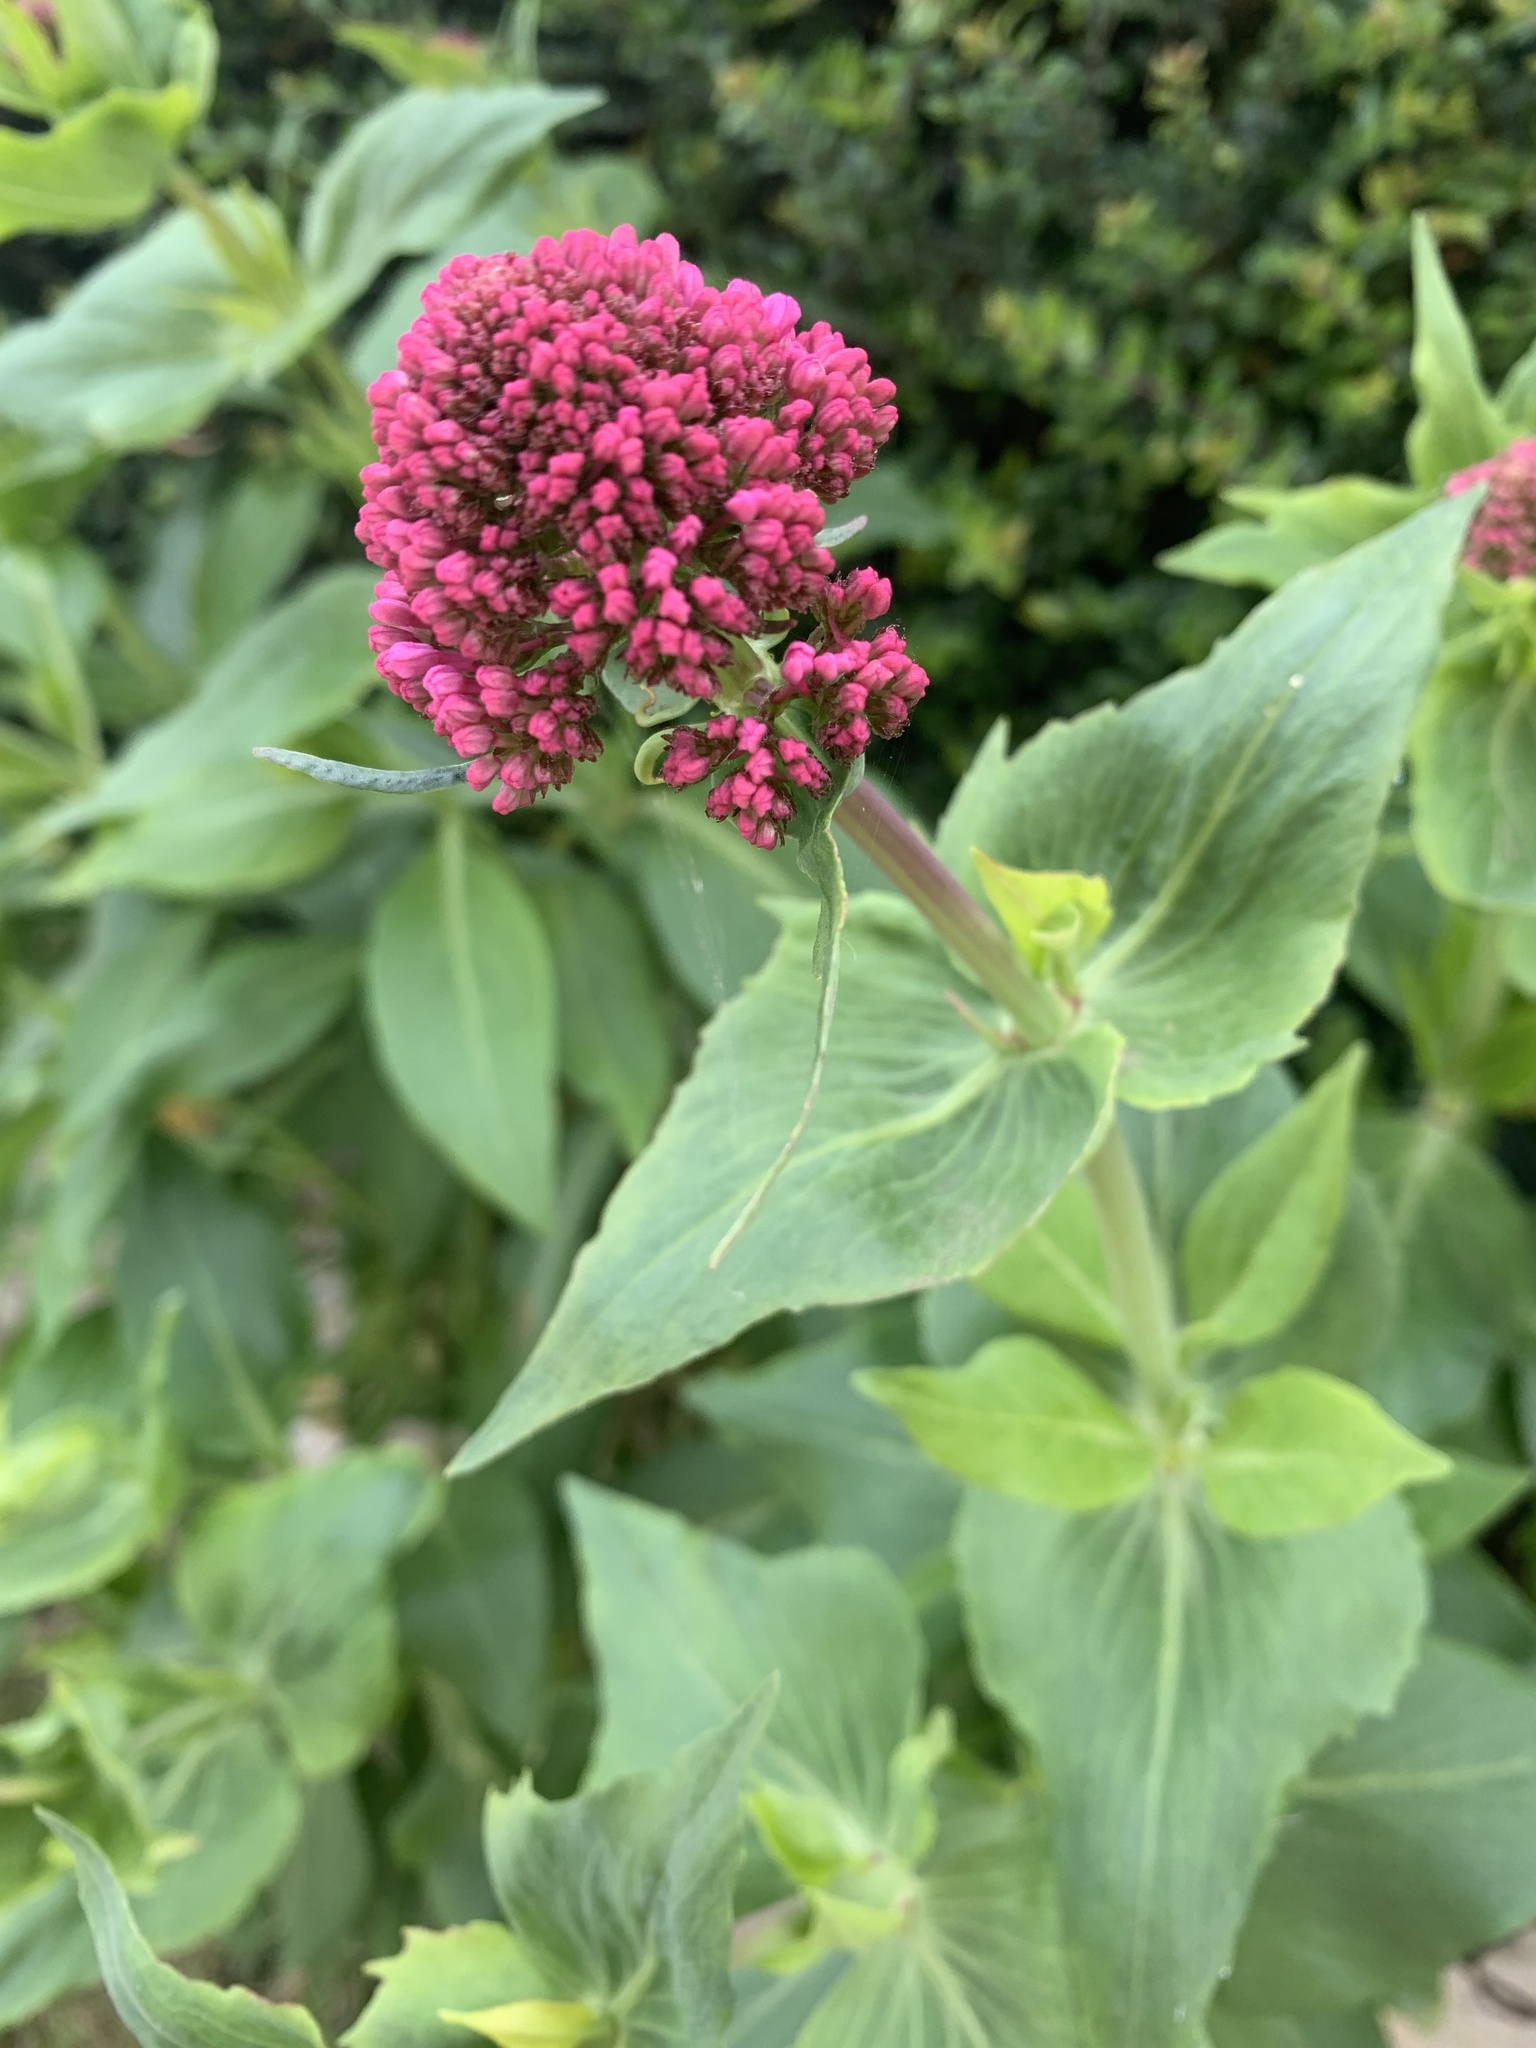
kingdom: Plantae
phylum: Tracheophyta
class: Magnoliopsida
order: Dipsacales
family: Caprifoliaceae
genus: Centranthus
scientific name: Centranthus ruber
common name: Red valerian
